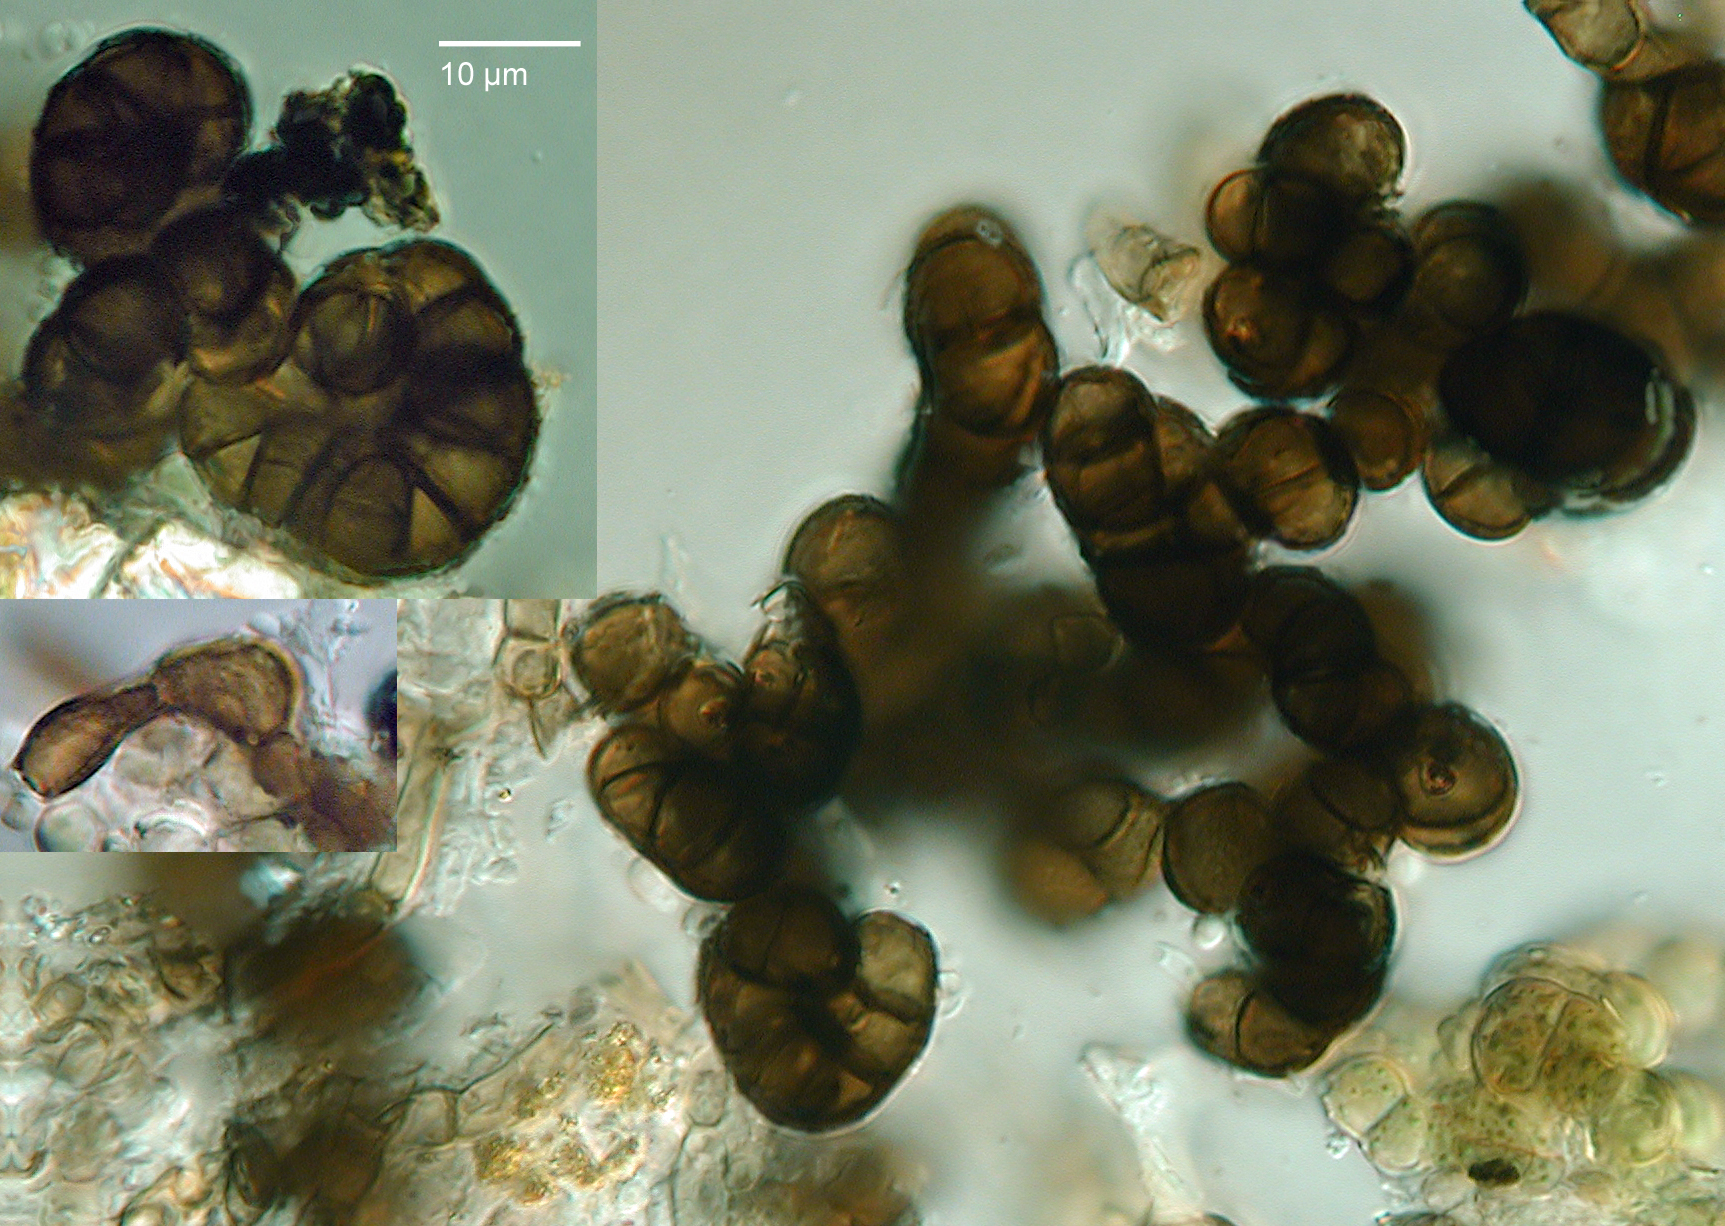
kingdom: Fungi
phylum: Ascomycota
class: Leotiomycetes
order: Helotiales
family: Mollisiaceae
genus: Trimmatostroma
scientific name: Trimmatostroma betulinum
